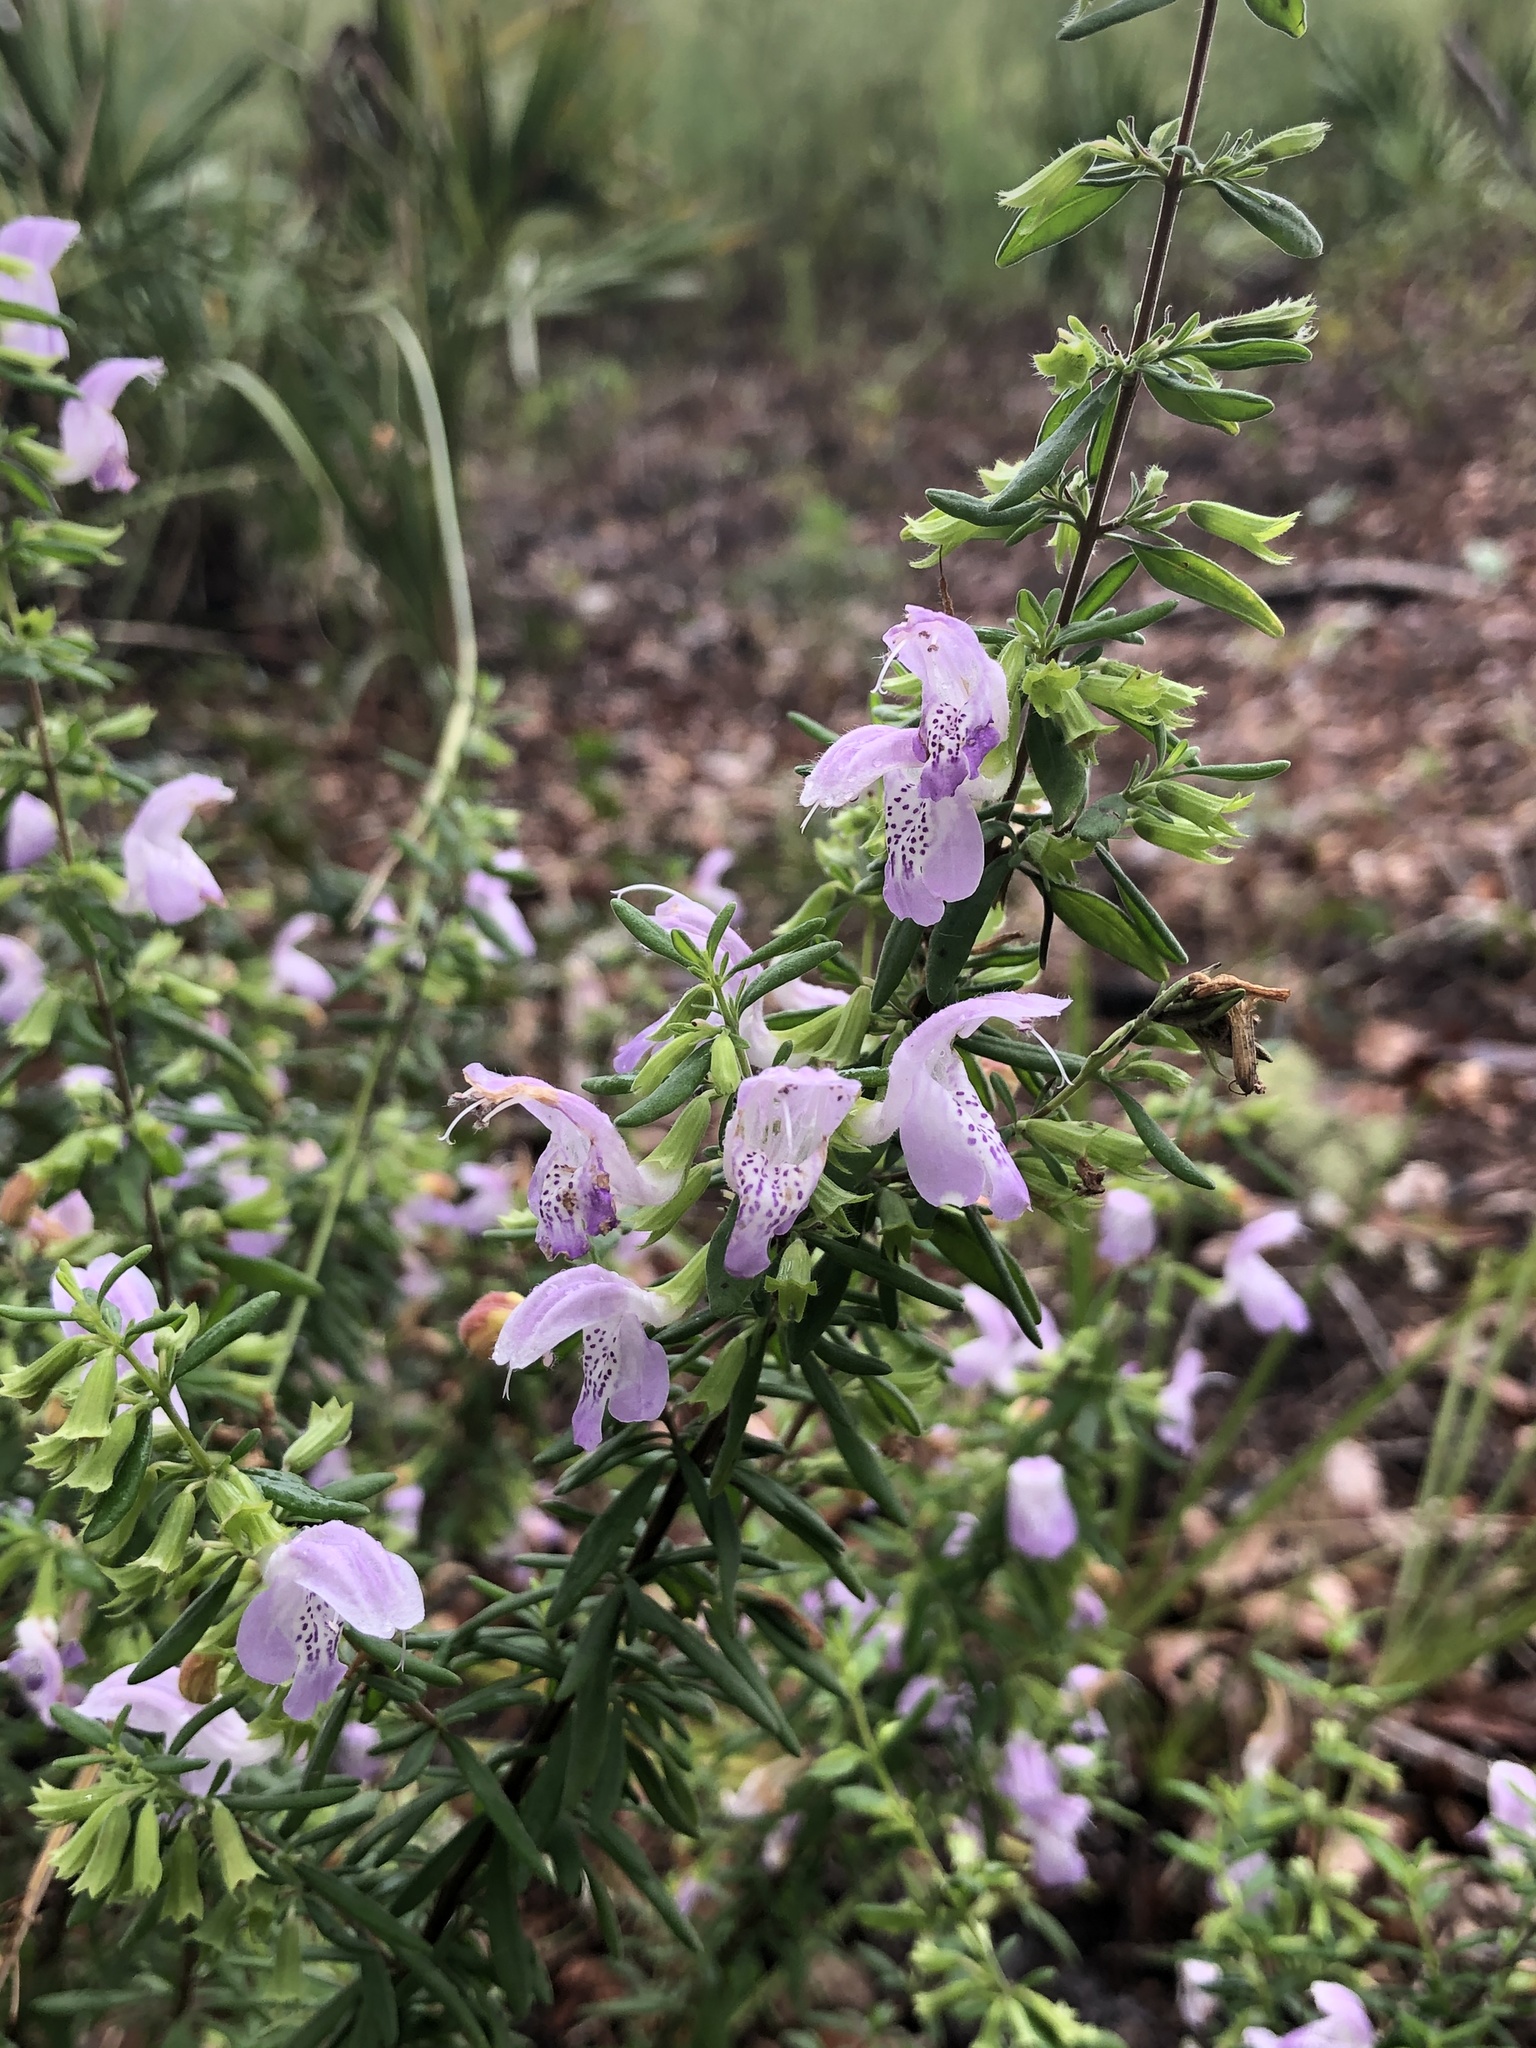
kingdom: Plantae
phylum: Tracheophyta
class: Magnoliopsida
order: Lamiales
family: Lamiaceae
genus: Conradina
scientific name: Conradina grandiflora
